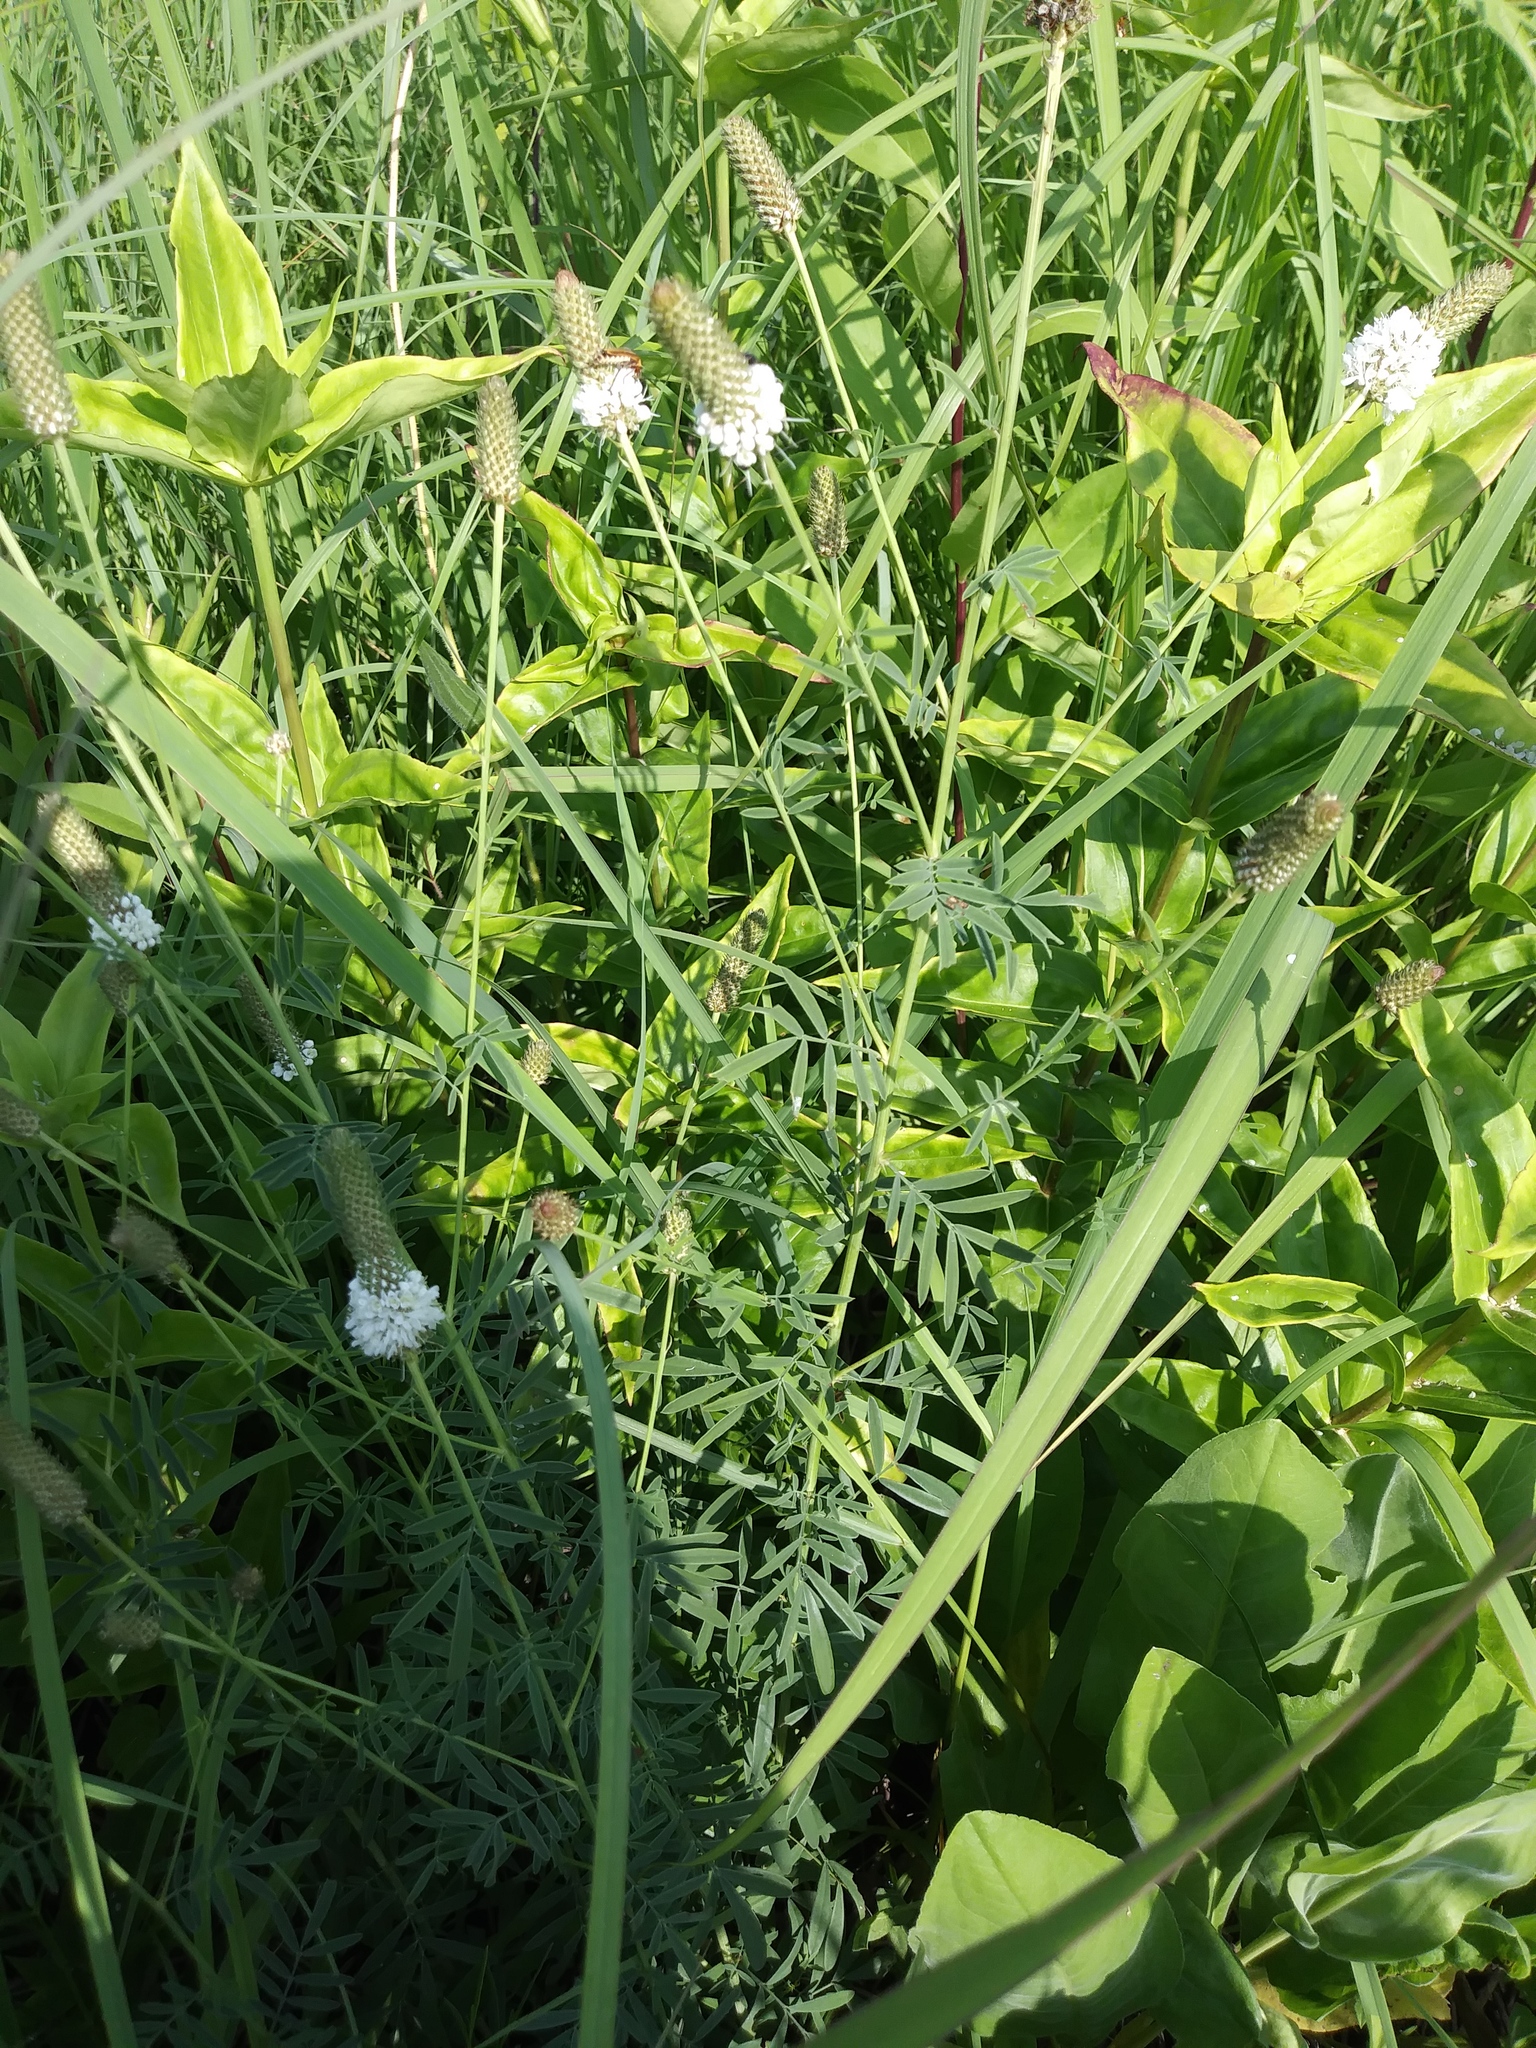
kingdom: Plantae
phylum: Tracheophyta
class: Magnoliopsida
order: Fabales
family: Fabaceae
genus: Dalea
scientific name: Dalea candida
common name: White prairie-clover
